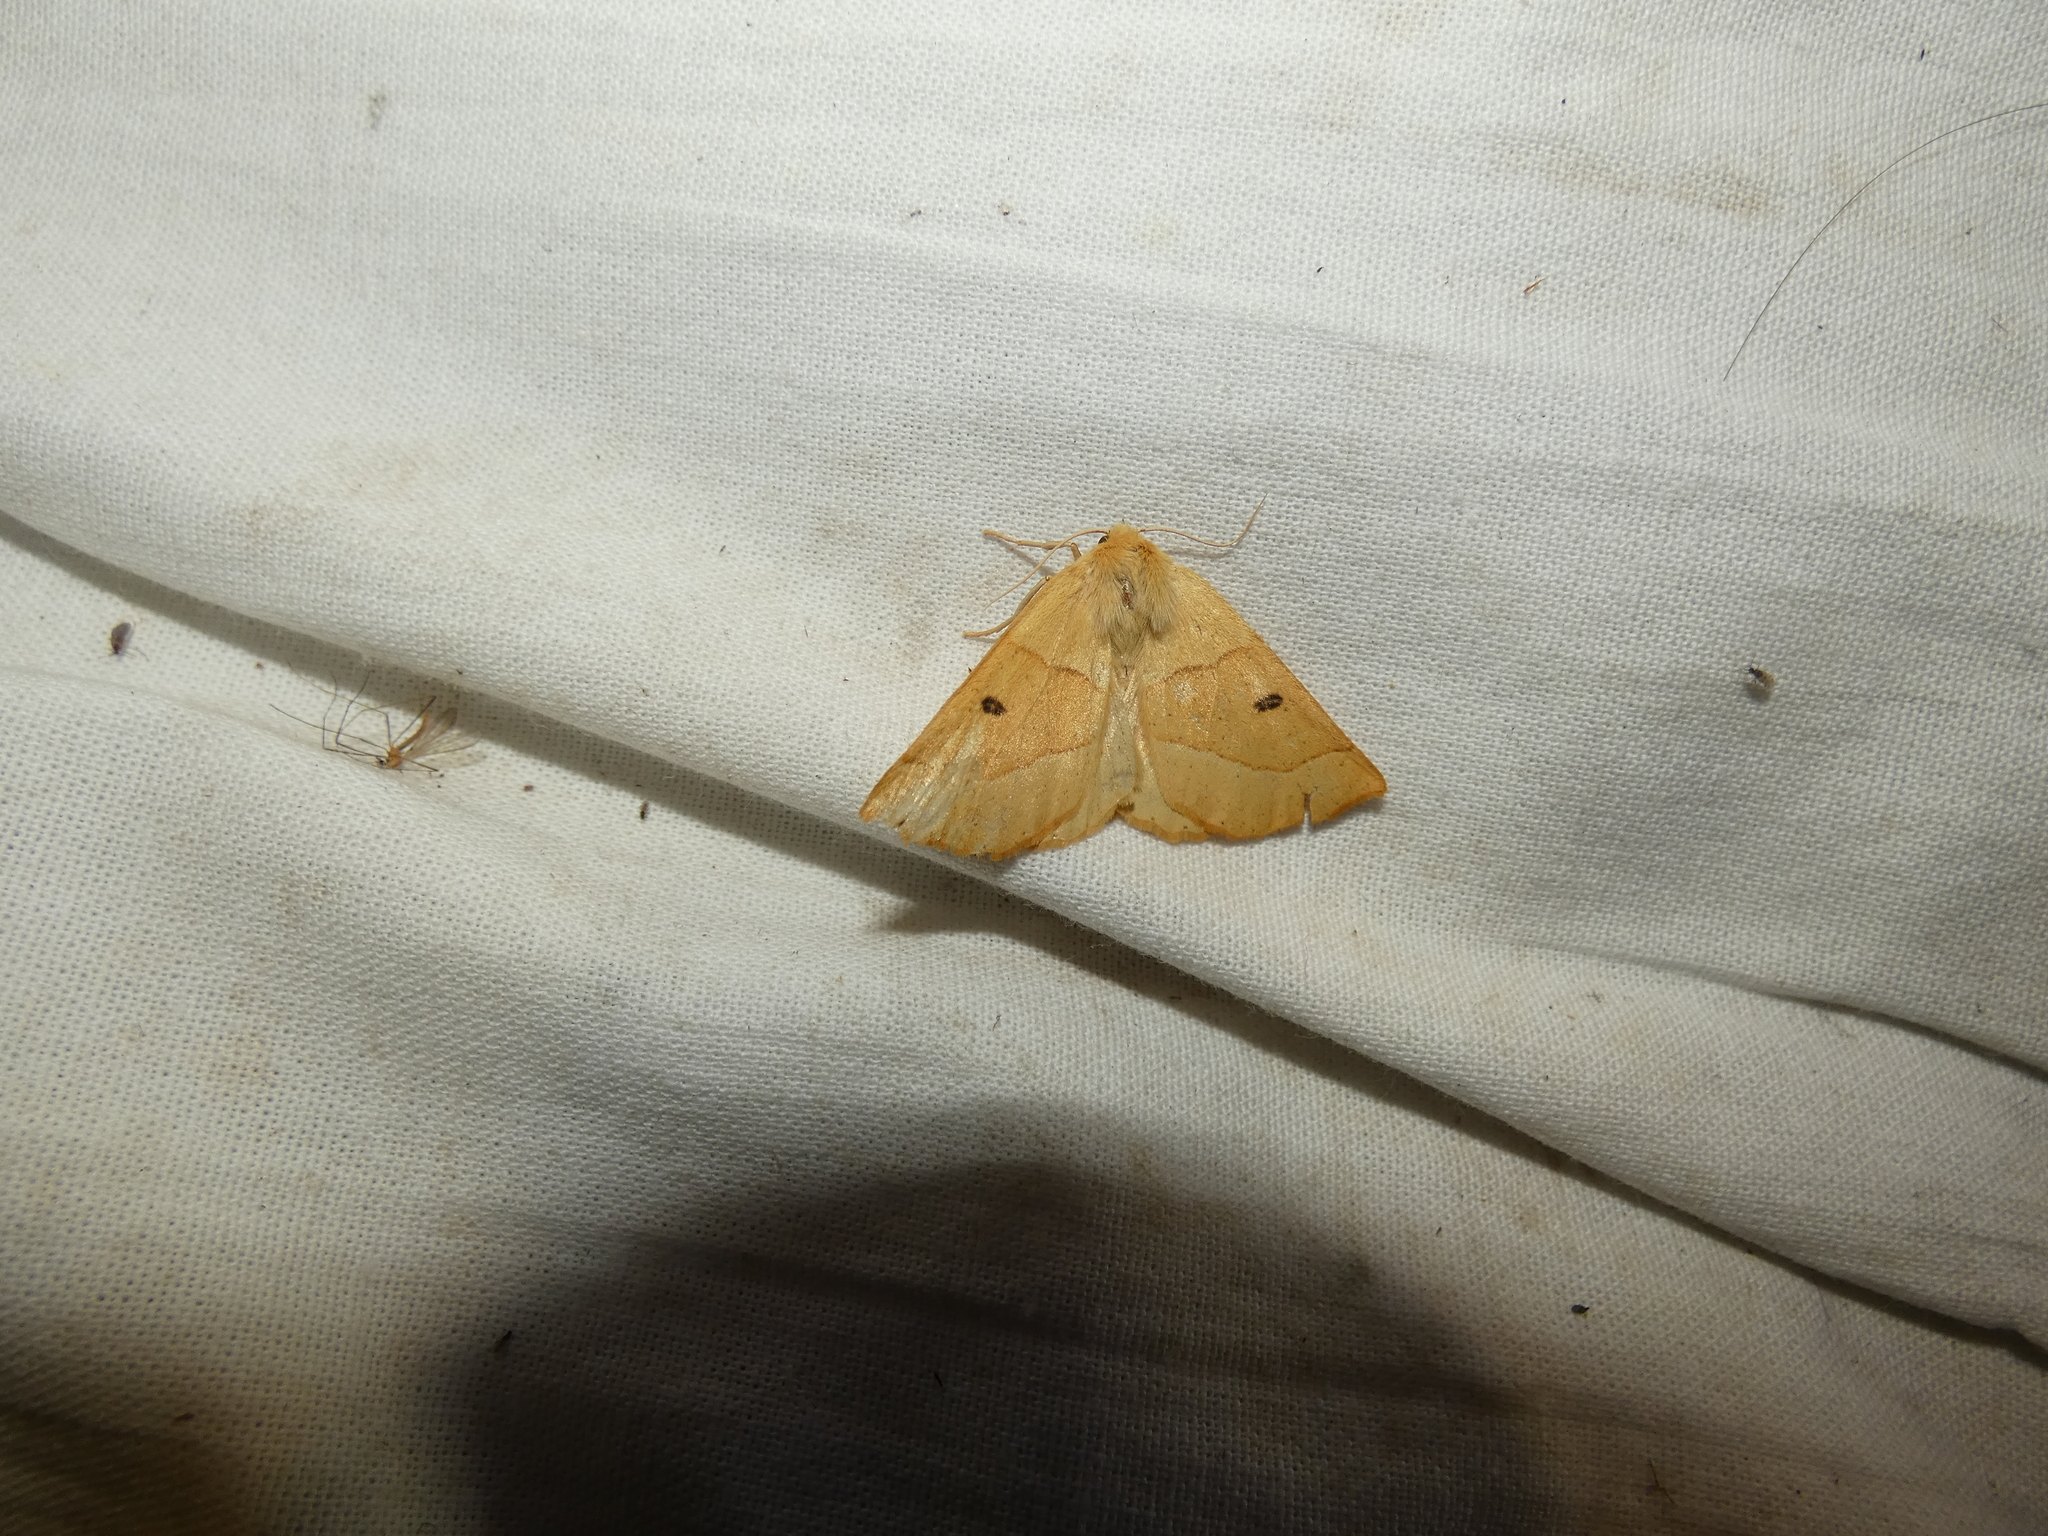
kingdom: Animalia
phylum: Arthropoda
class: Insecta
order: Lepidoptera
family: Geometridae
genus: Crocallis
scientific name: Crocallis elinguaria
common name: Scalloped oak
